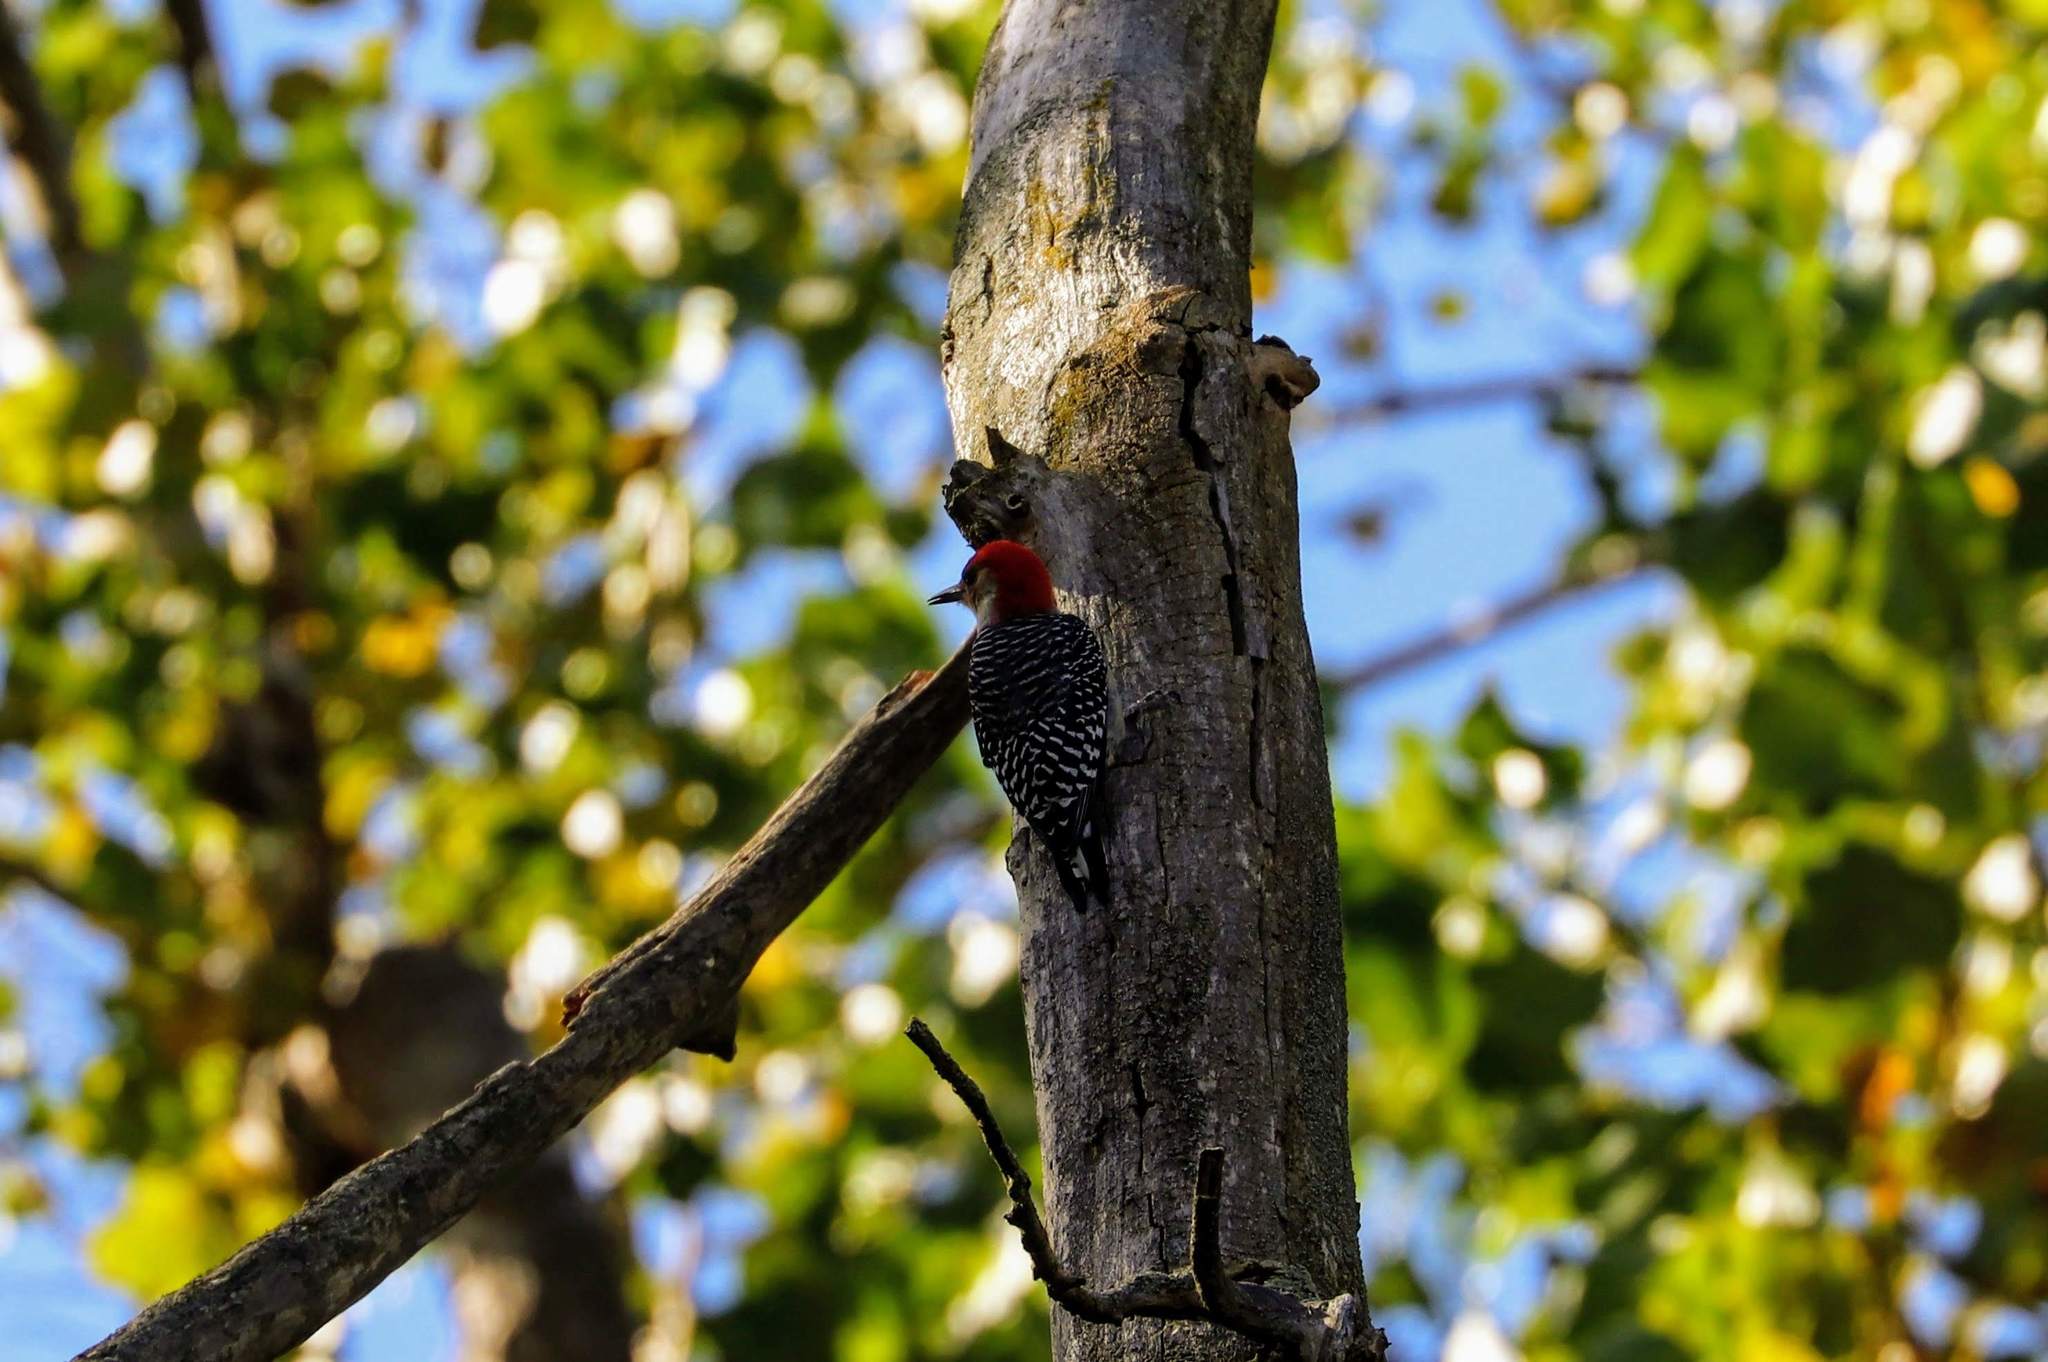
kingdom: Animalia
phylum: Chordata
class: Aves
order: Piciformes
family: Picidae
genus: Melanerpes
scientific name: Melanerpes carolinus
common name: Red-bellied woodpecker
